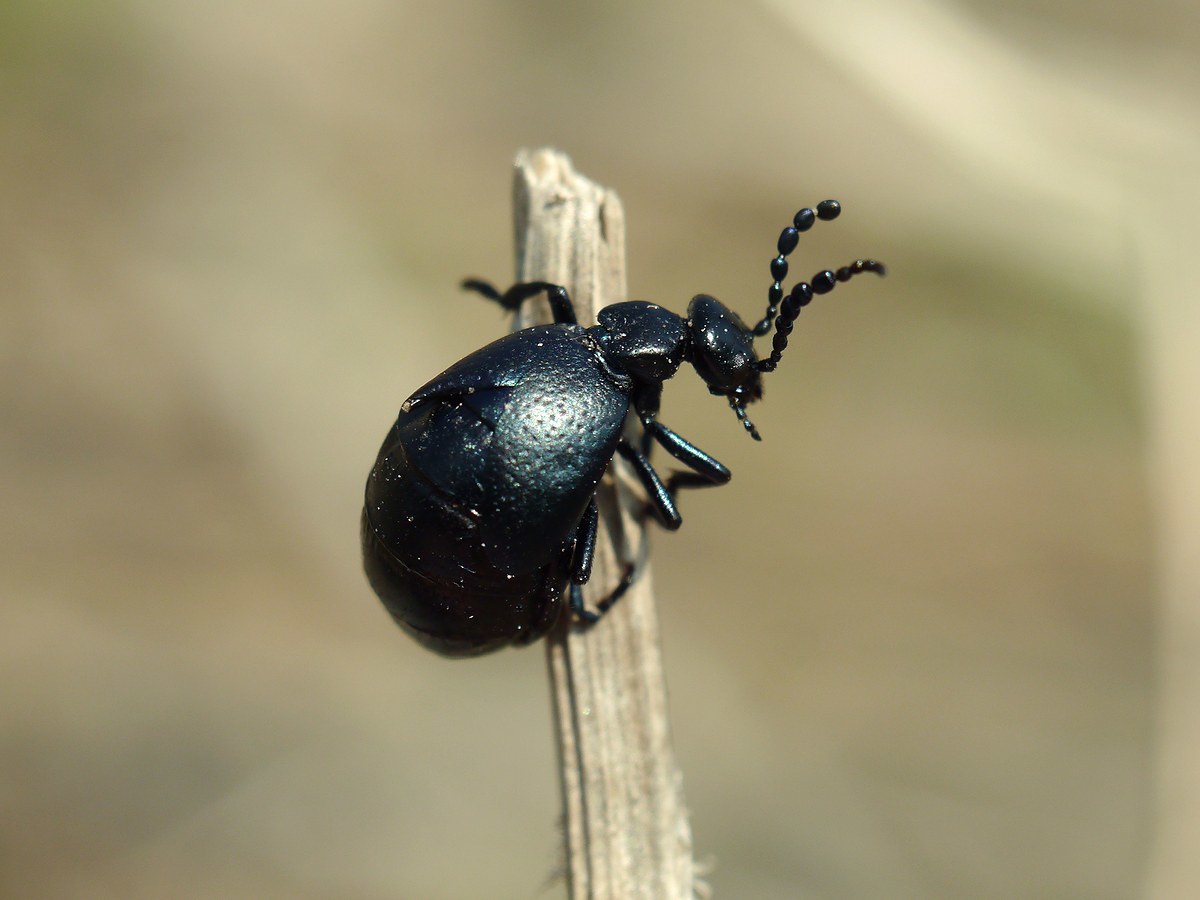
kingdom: Animalia
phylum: Arthropoda
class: Insecta
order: Coleoptera
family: Meloidae
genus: Meloe
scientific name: Meloe autumnalis
